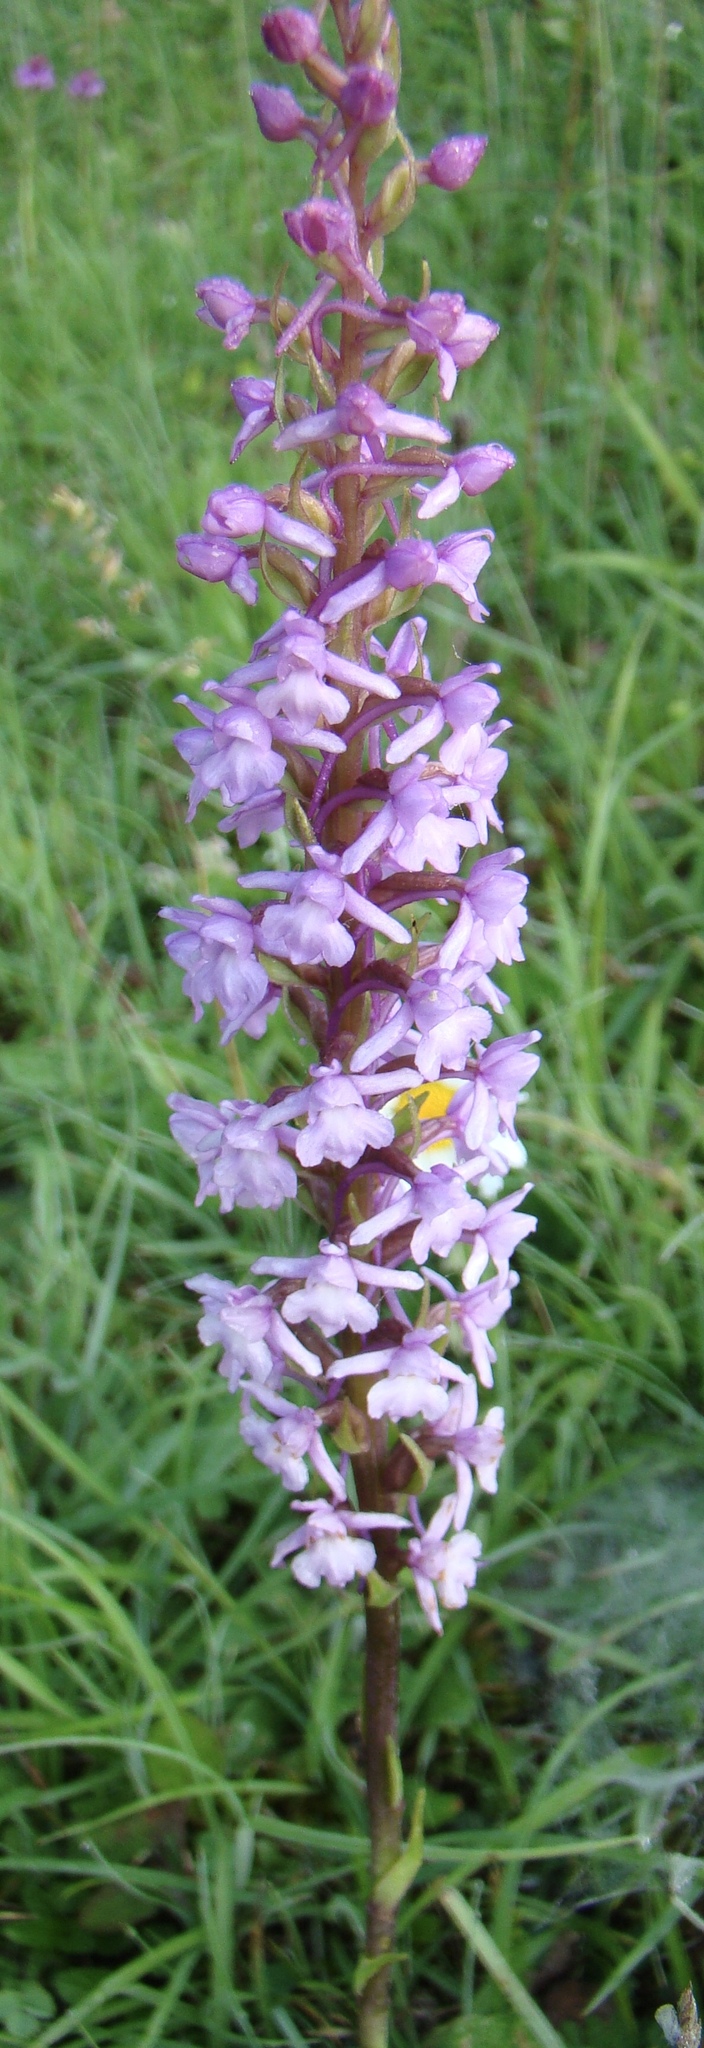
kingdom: Plantae
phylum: Tracheophyta
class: Liliopsida
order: Asparagales
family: Orchidaceae
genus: Gymnadenia
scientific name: Gymnadenia conopsea
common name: Fragrant orchid
